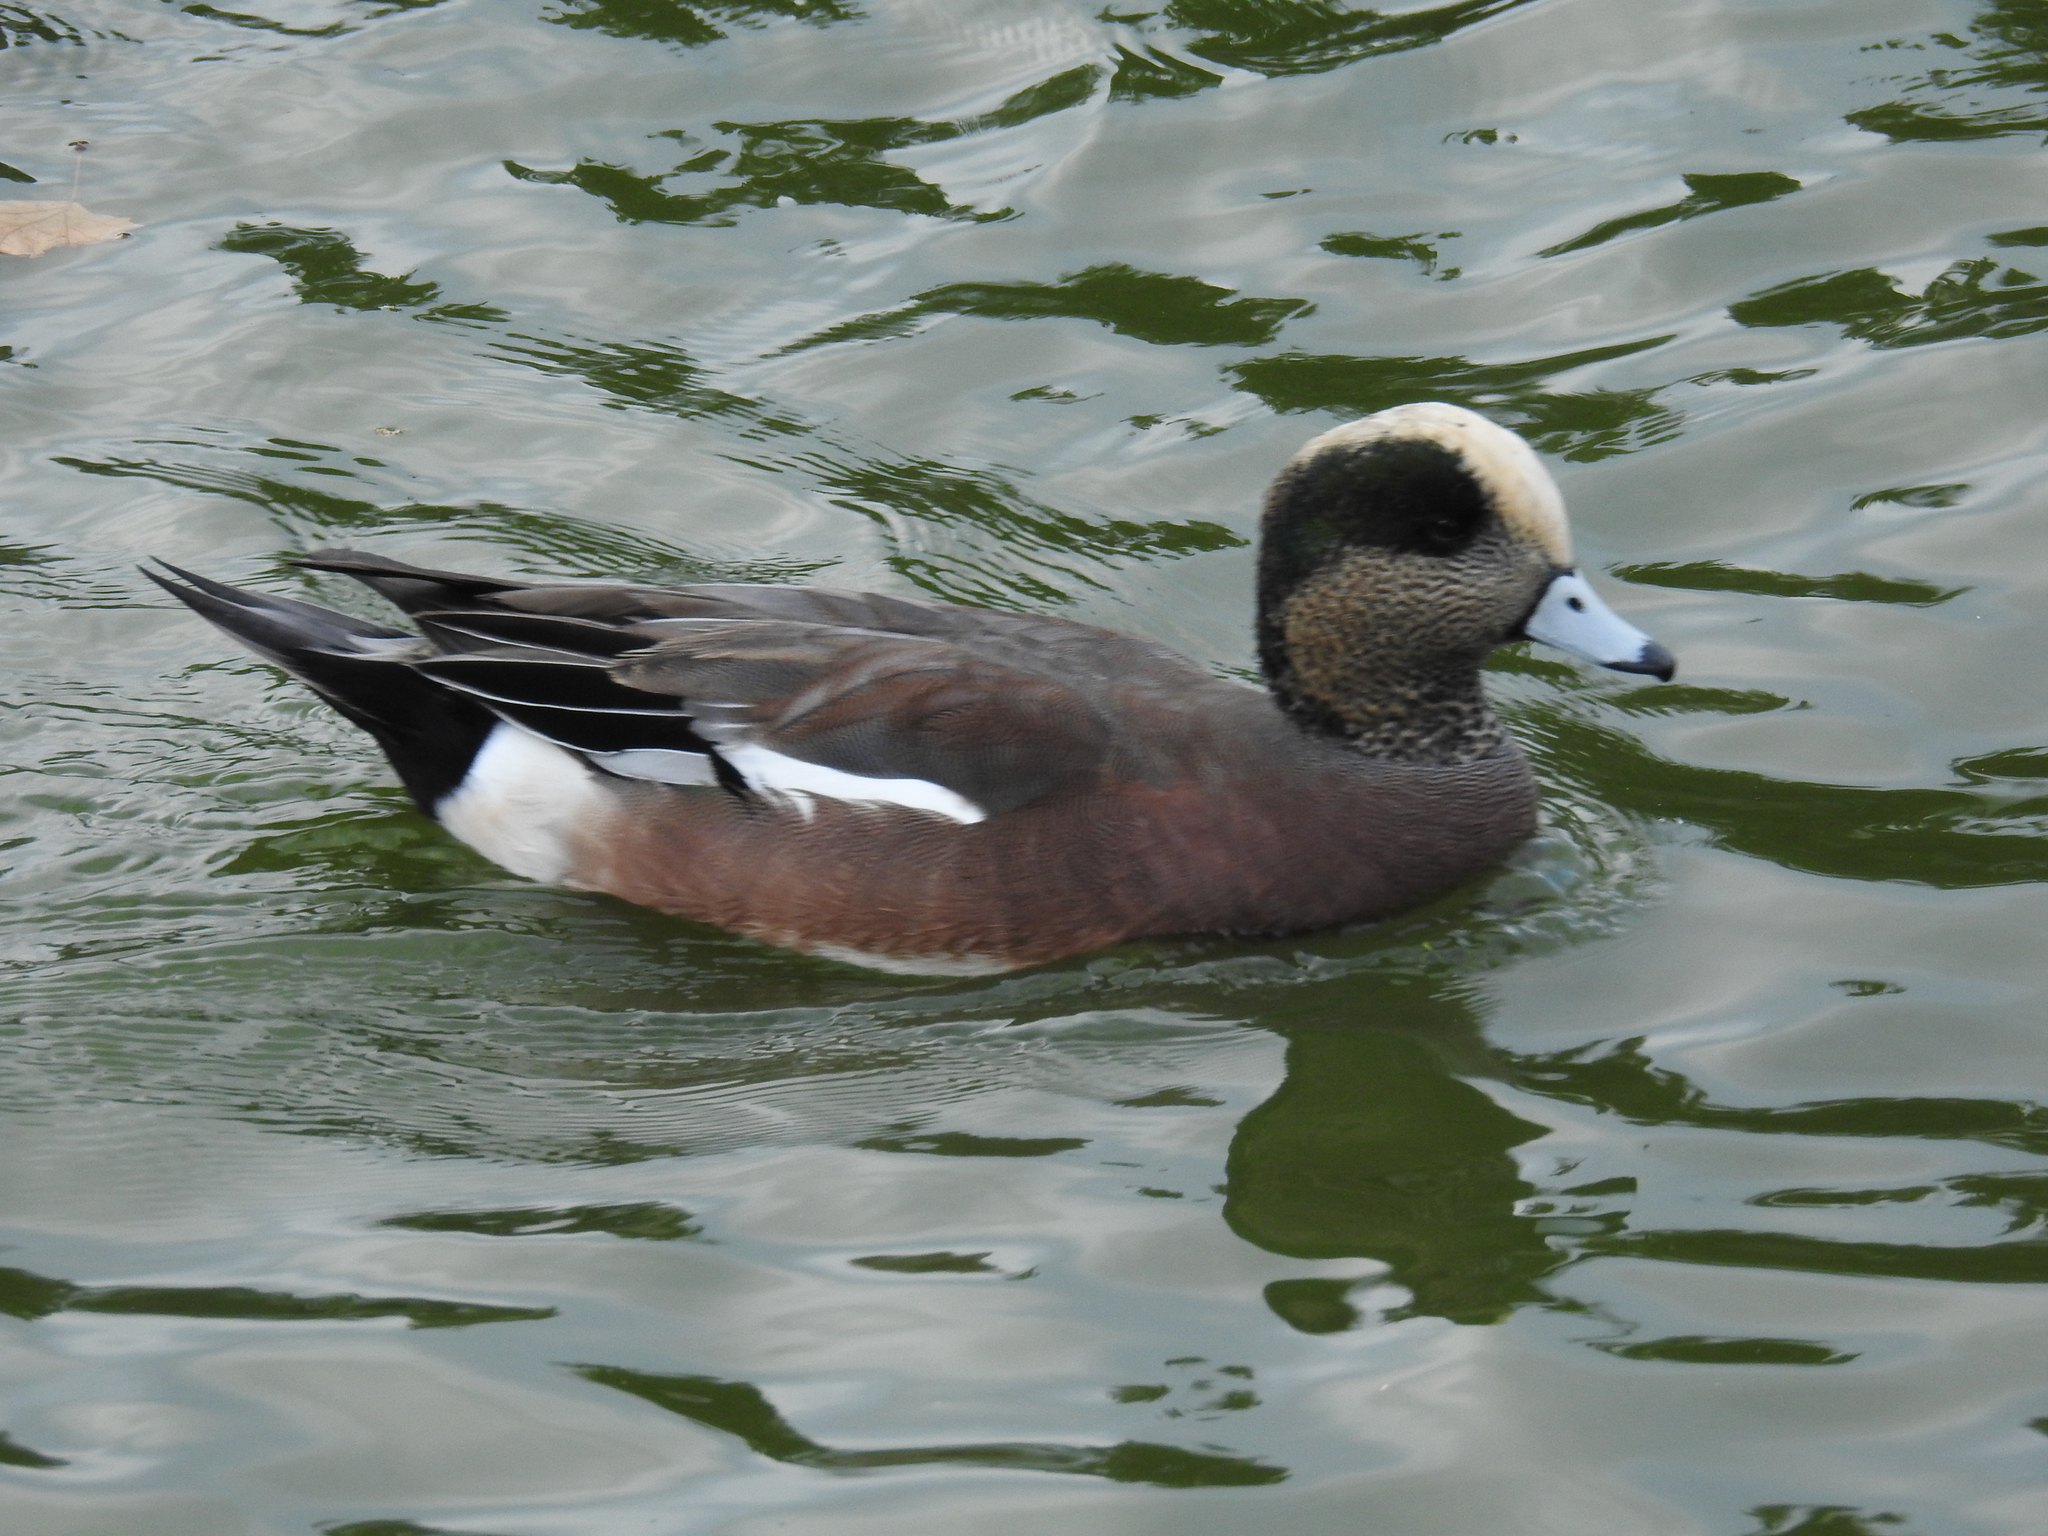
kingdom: Animalia
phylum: Chordata
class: Aves
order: Anseriformes
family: Anatidae
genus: Mareca
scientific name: Mareca americana
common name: American wigeon
